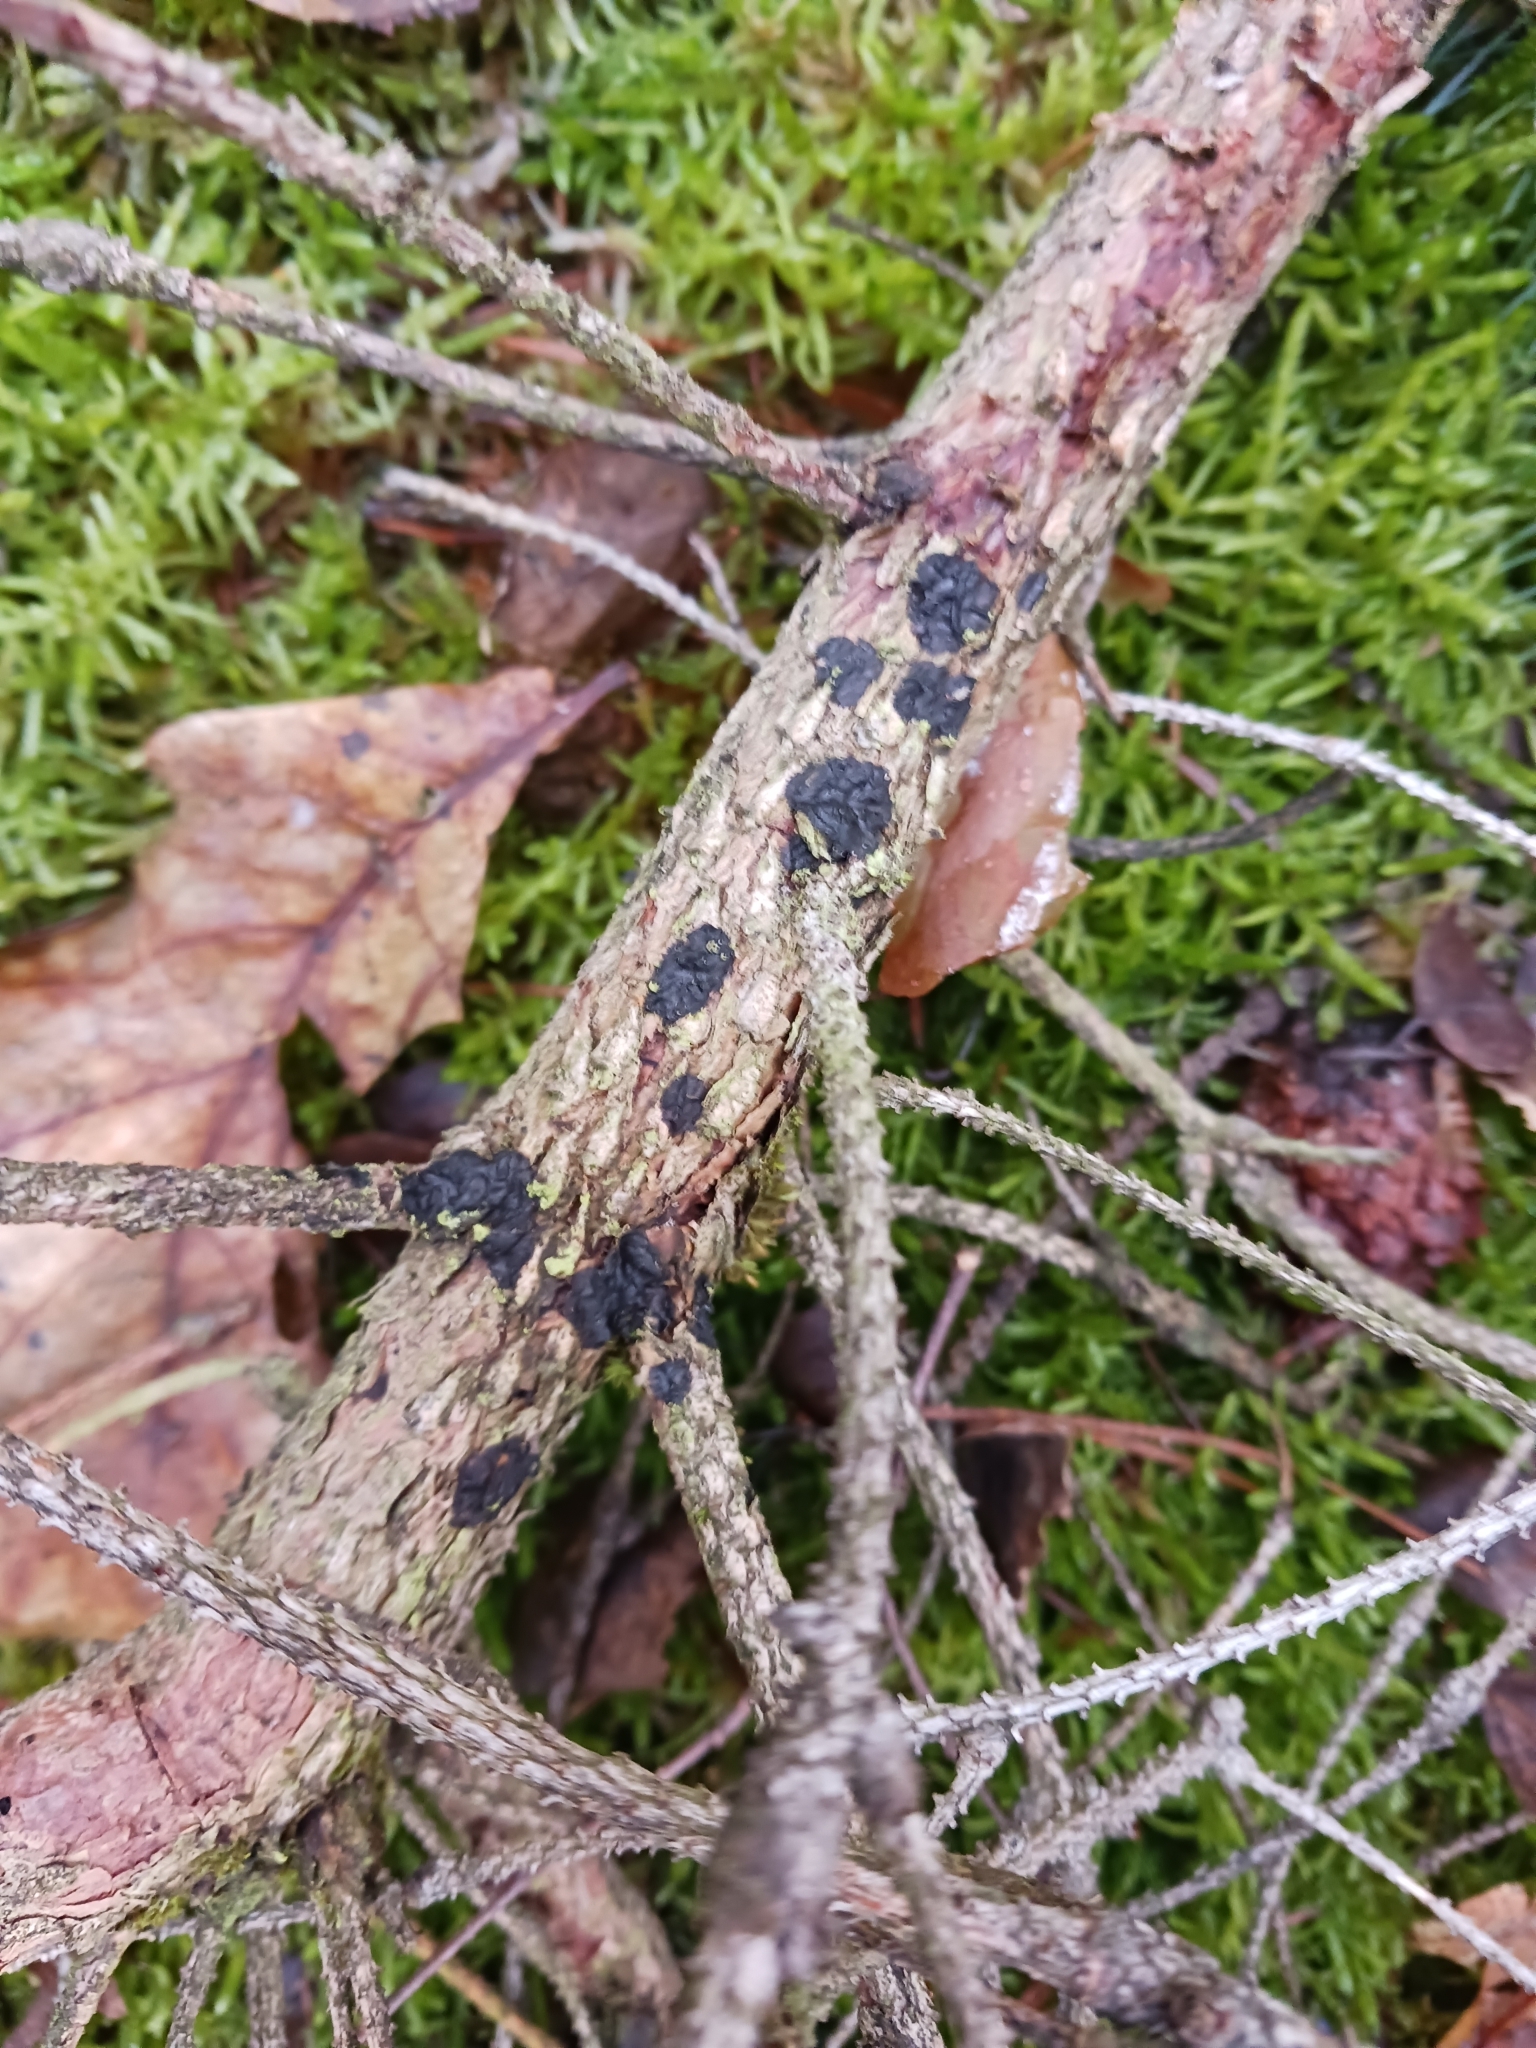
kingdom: Fungi
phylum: Basidiomycota
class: Agaricomycetes
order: Auriculariales
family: Auriculariaceae
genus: Exidia
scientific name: Exidia pithya
